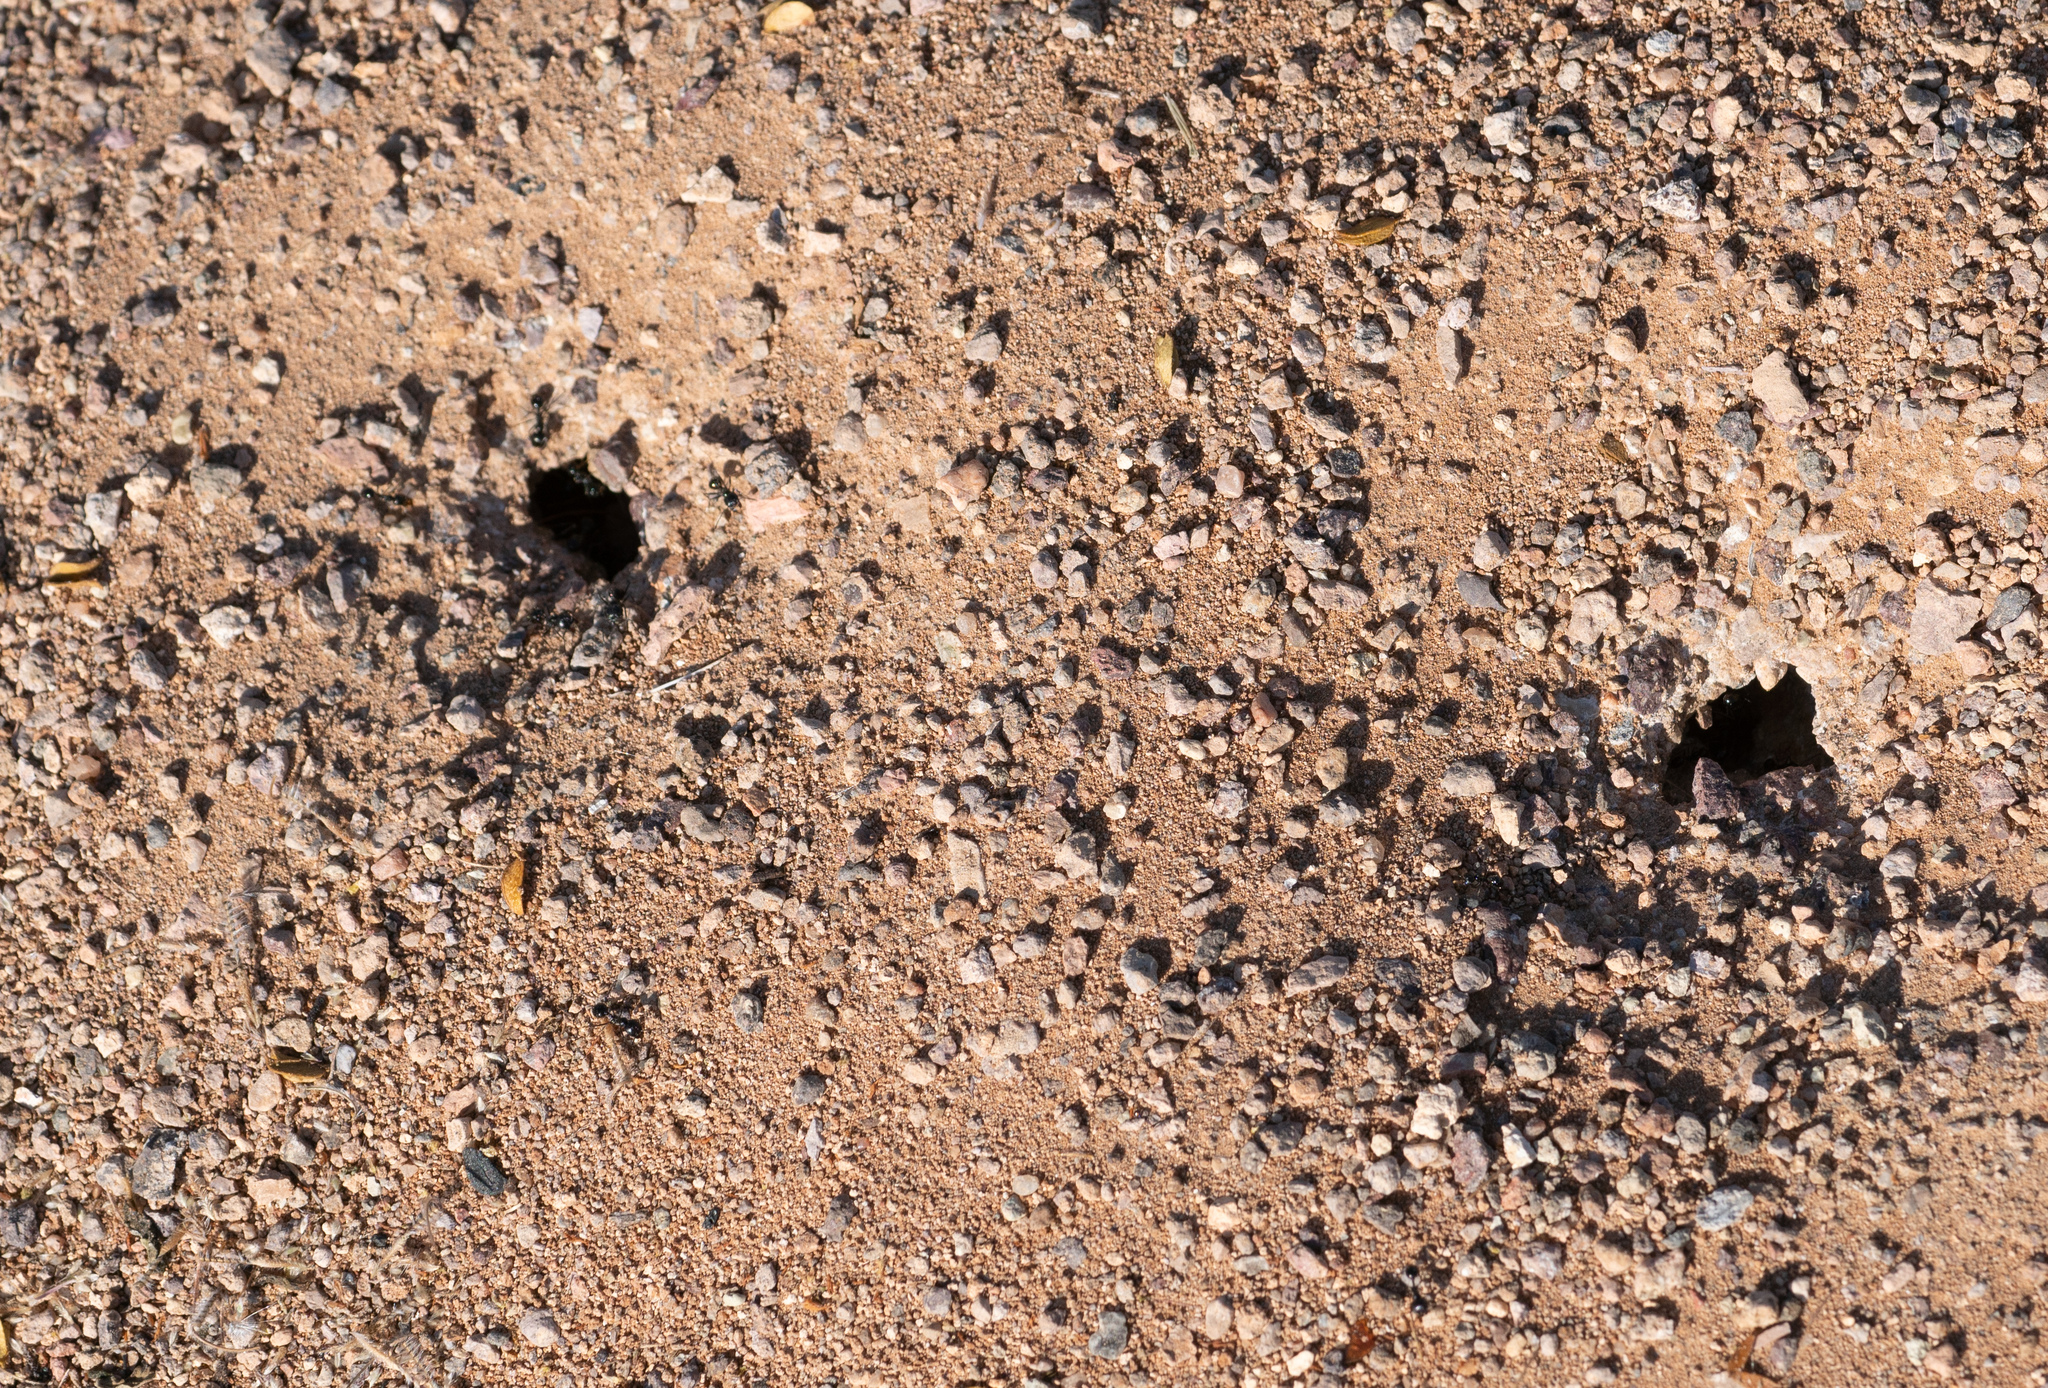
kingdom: Animalia
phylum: Arthropoda
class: Insecta
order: Hymenoptera
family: Formicidae
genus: Messor
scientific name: Messor pergandei
